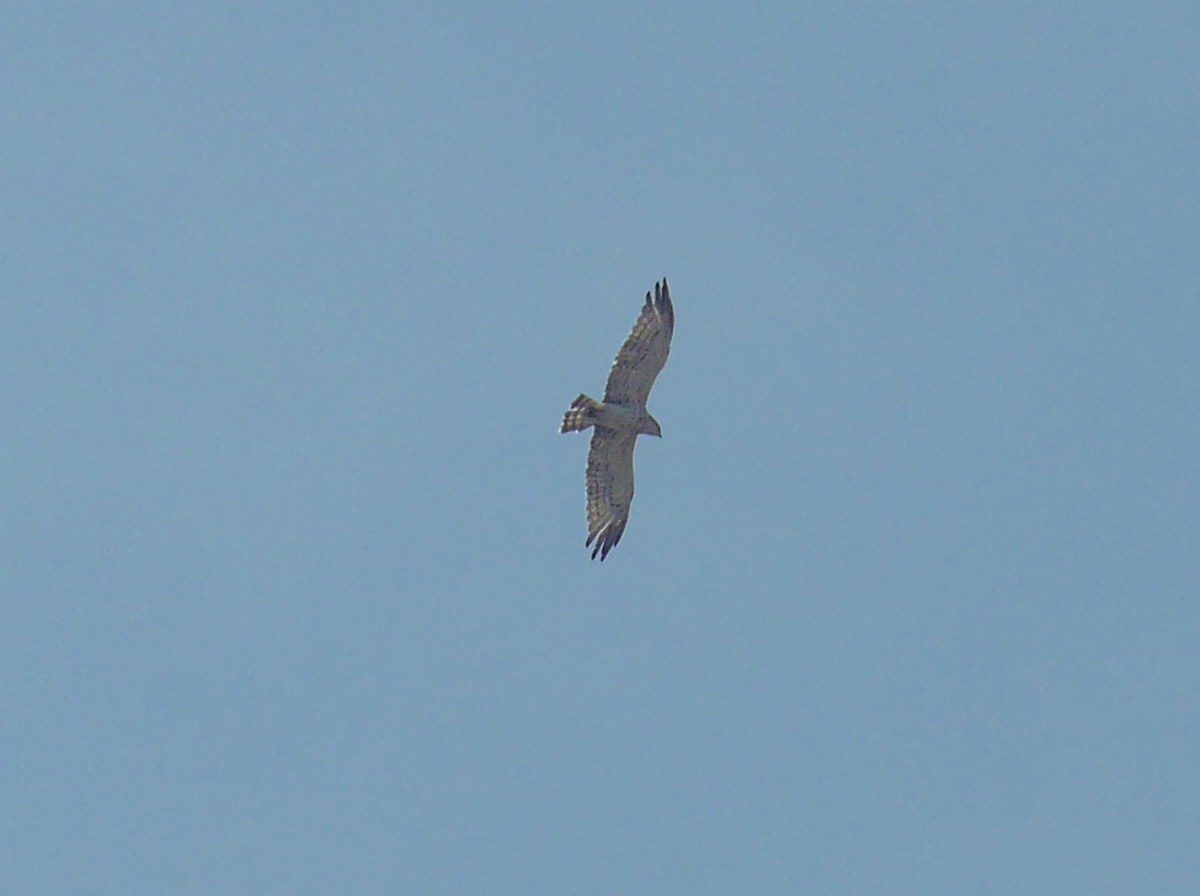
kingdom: Animalia
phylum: Chordata
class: Aves
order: Accipitriformes
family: Accipitridae
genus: Circaetus
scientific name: Circaetus gallicus
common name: Short-toed snake eagle
